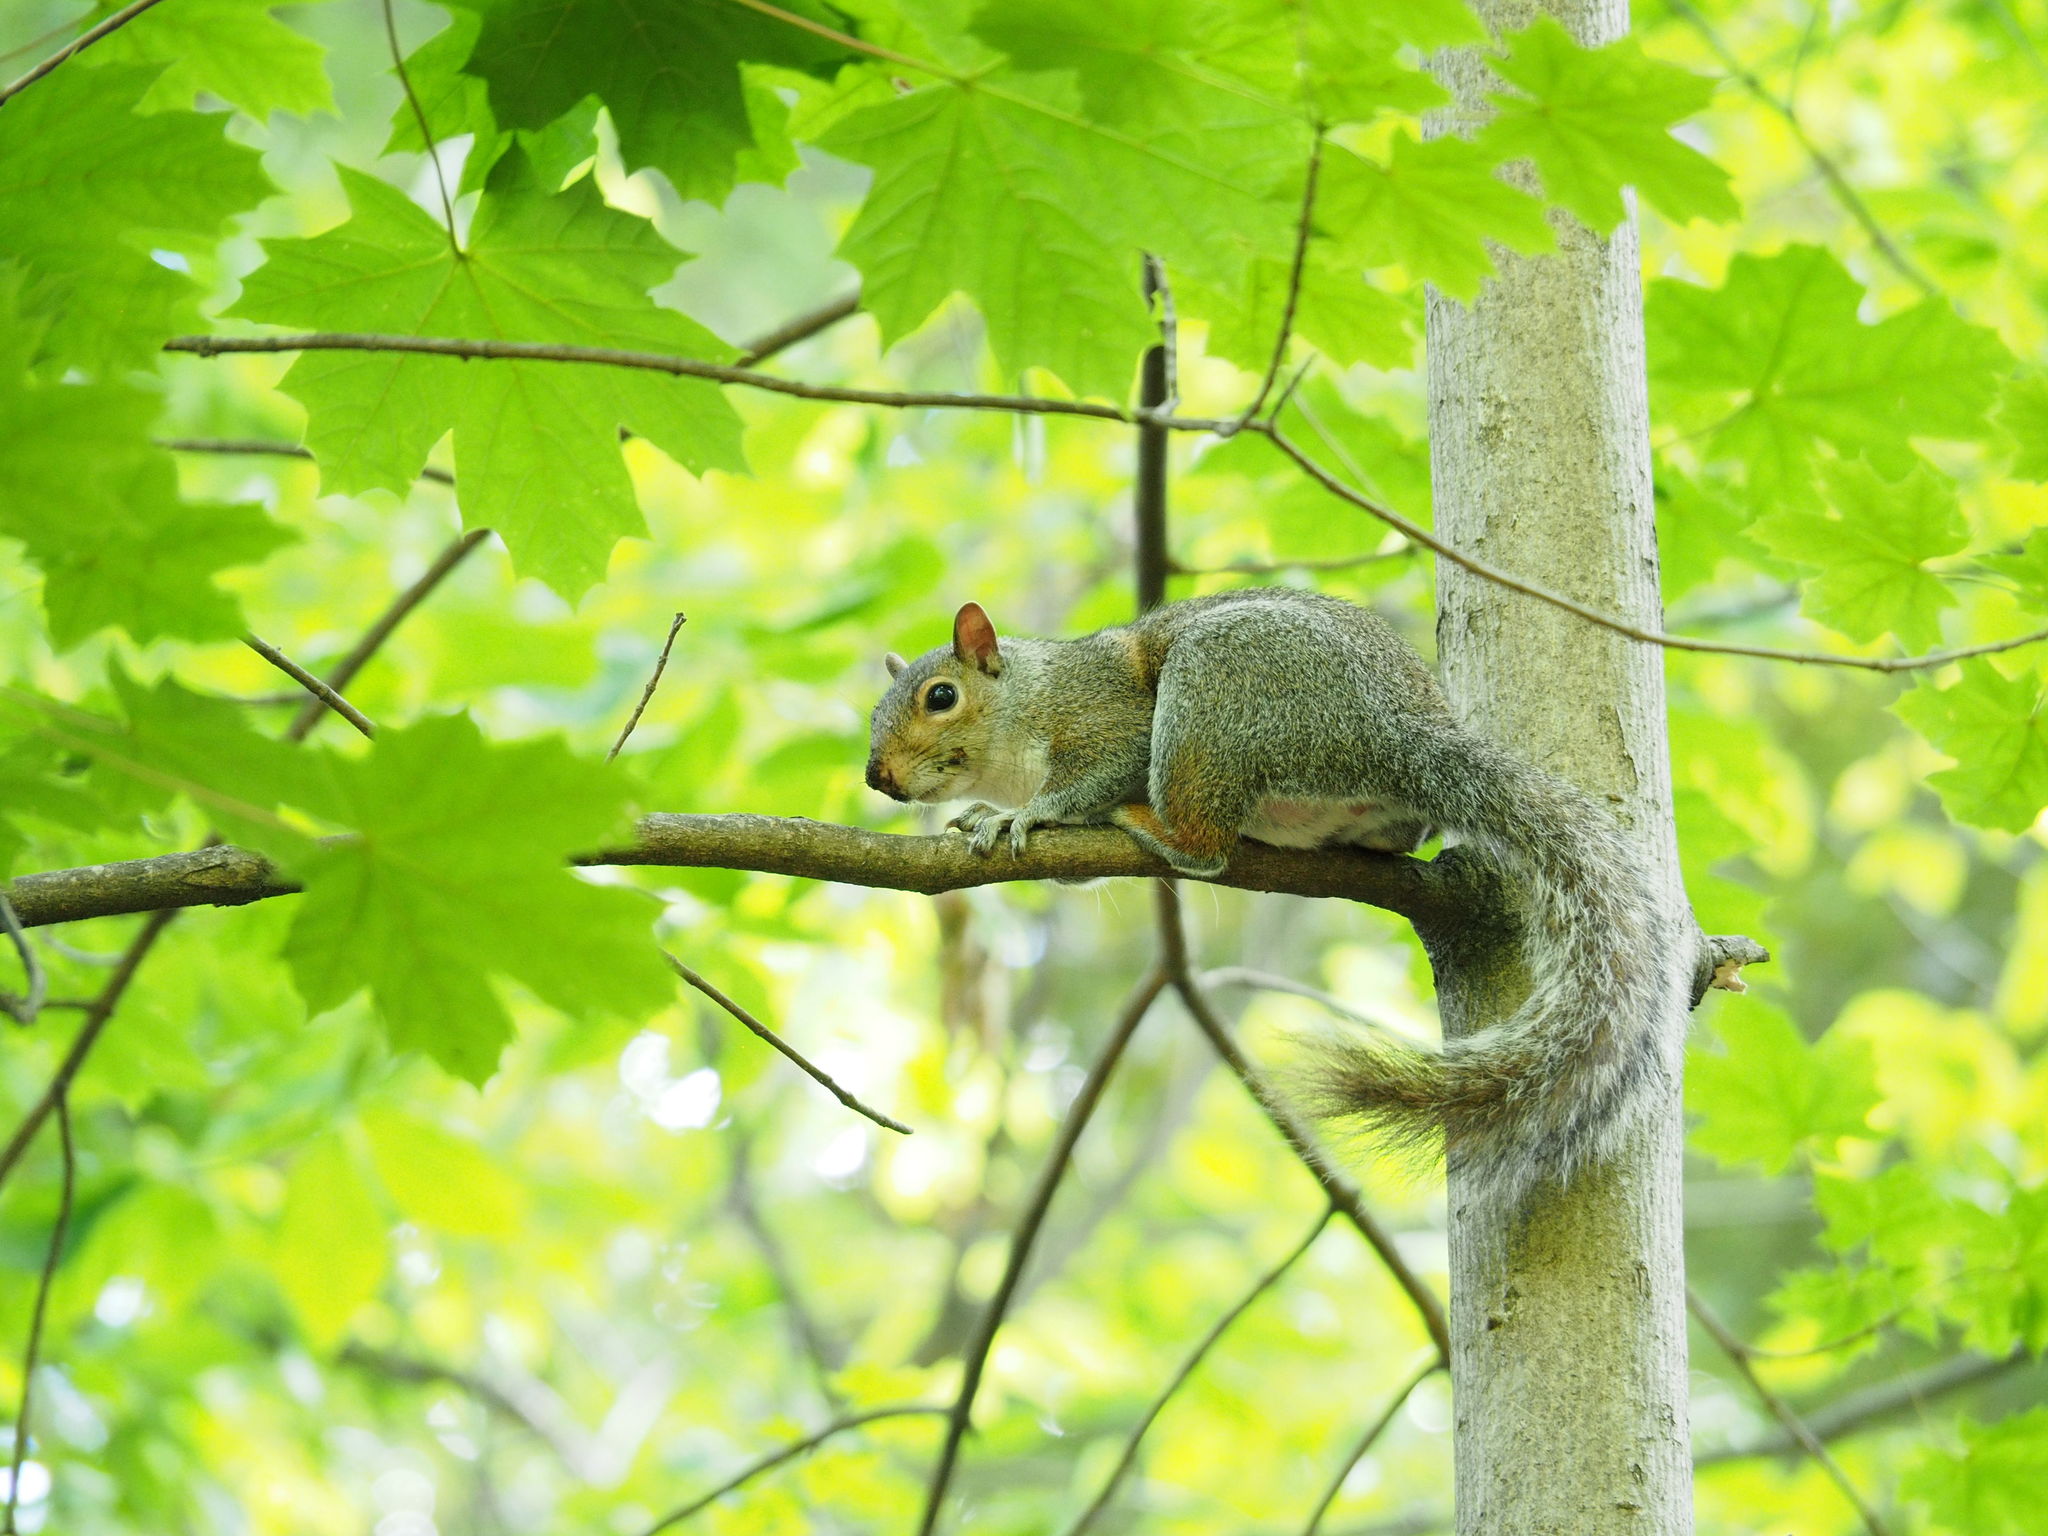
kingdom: Animalia
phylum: Chordata
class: Mammalia
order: Rodentia
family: Sciuridae
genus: Sciurus
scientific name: Sciurus carolinensis
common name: Eastern gray squirrel
